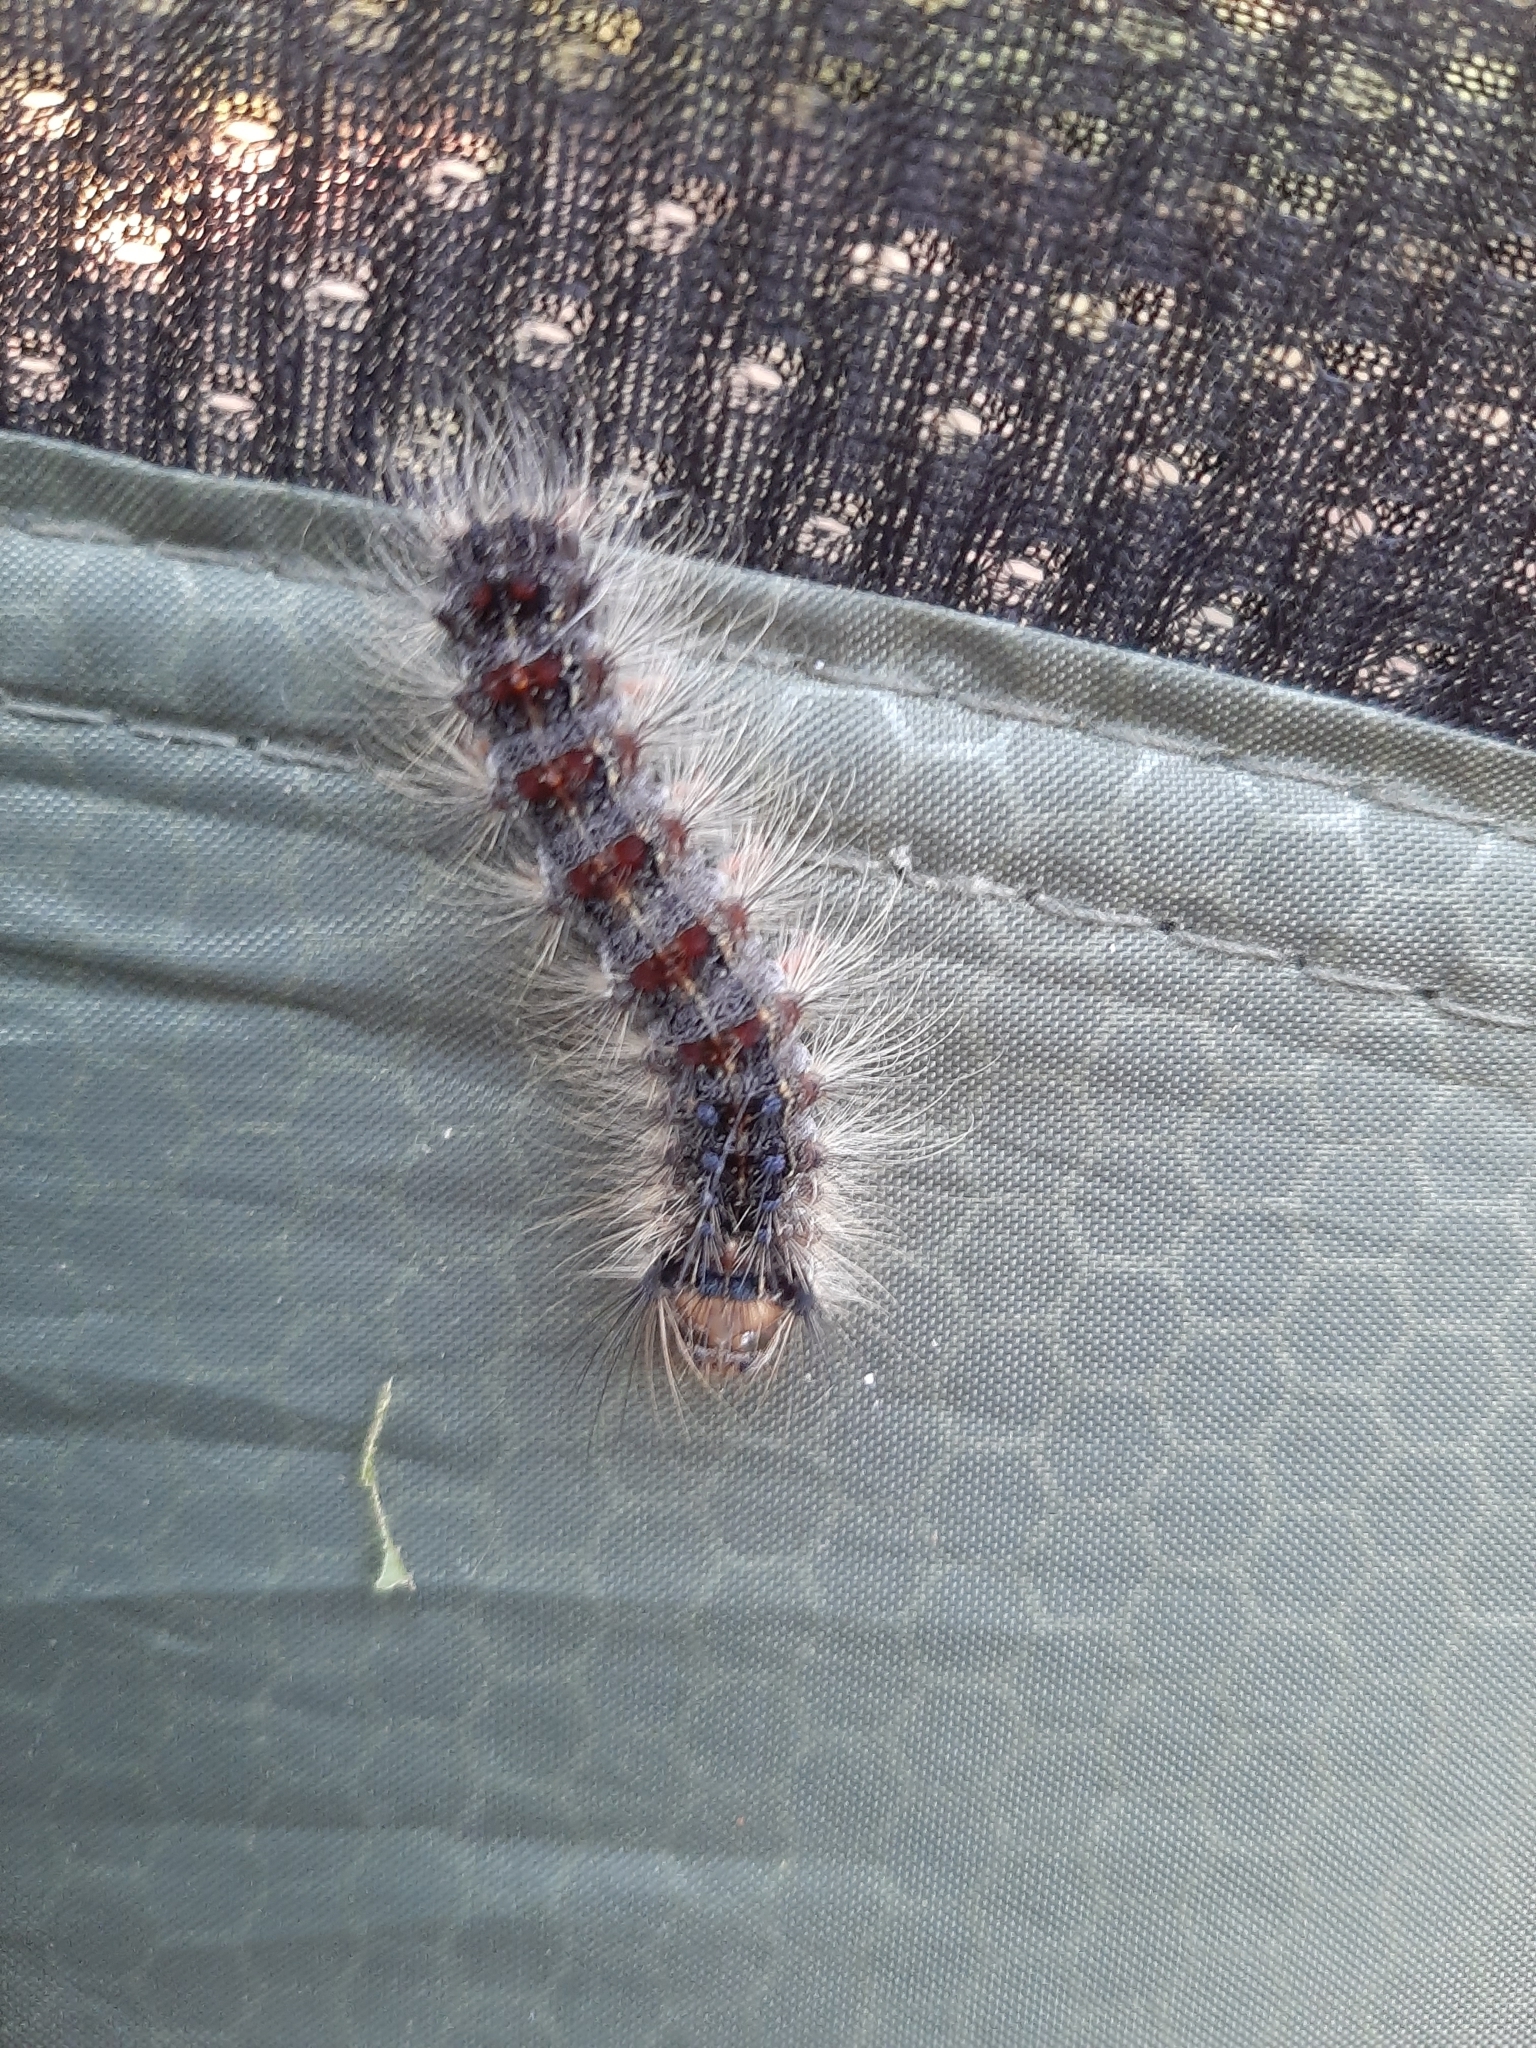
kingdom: Animalia
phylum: Arthropoda
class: Insecta
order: Lepidoptera
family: Erebidae
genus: Lymantria
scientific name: Lymantria dispar
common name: Gypsy moth
